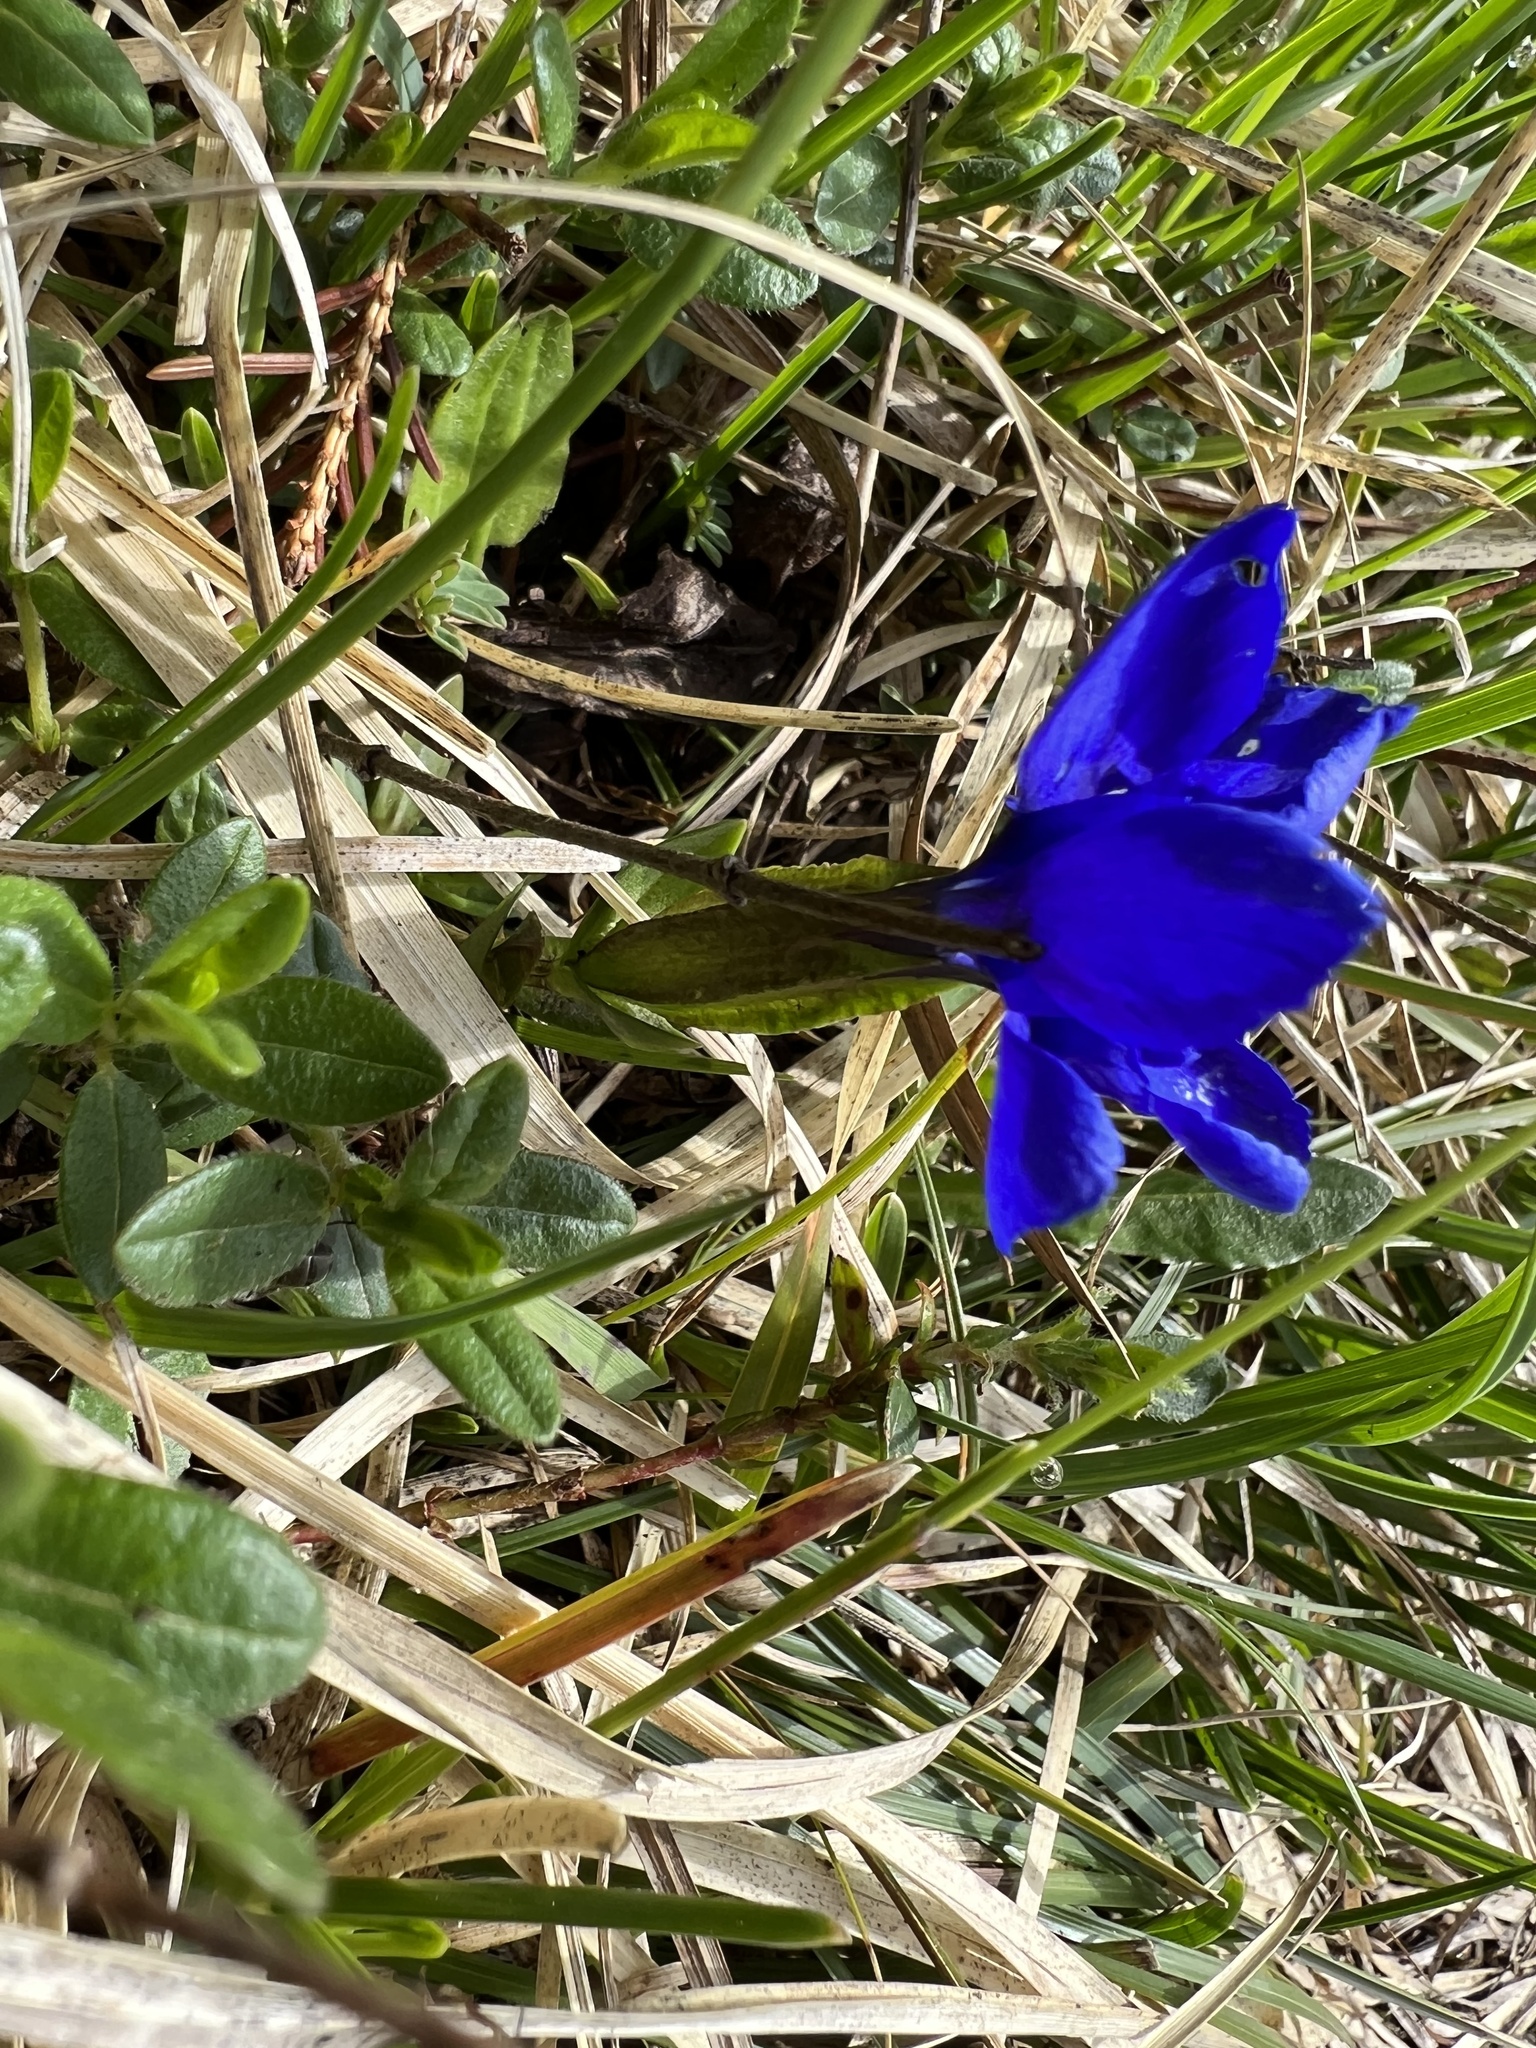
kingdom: Plantae
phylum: Tracheophyta
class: Magnoliopsida
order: Gentianales
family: Gentianaceae
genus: Gentiana
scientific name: Gentiana verna
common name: Spring gentian
